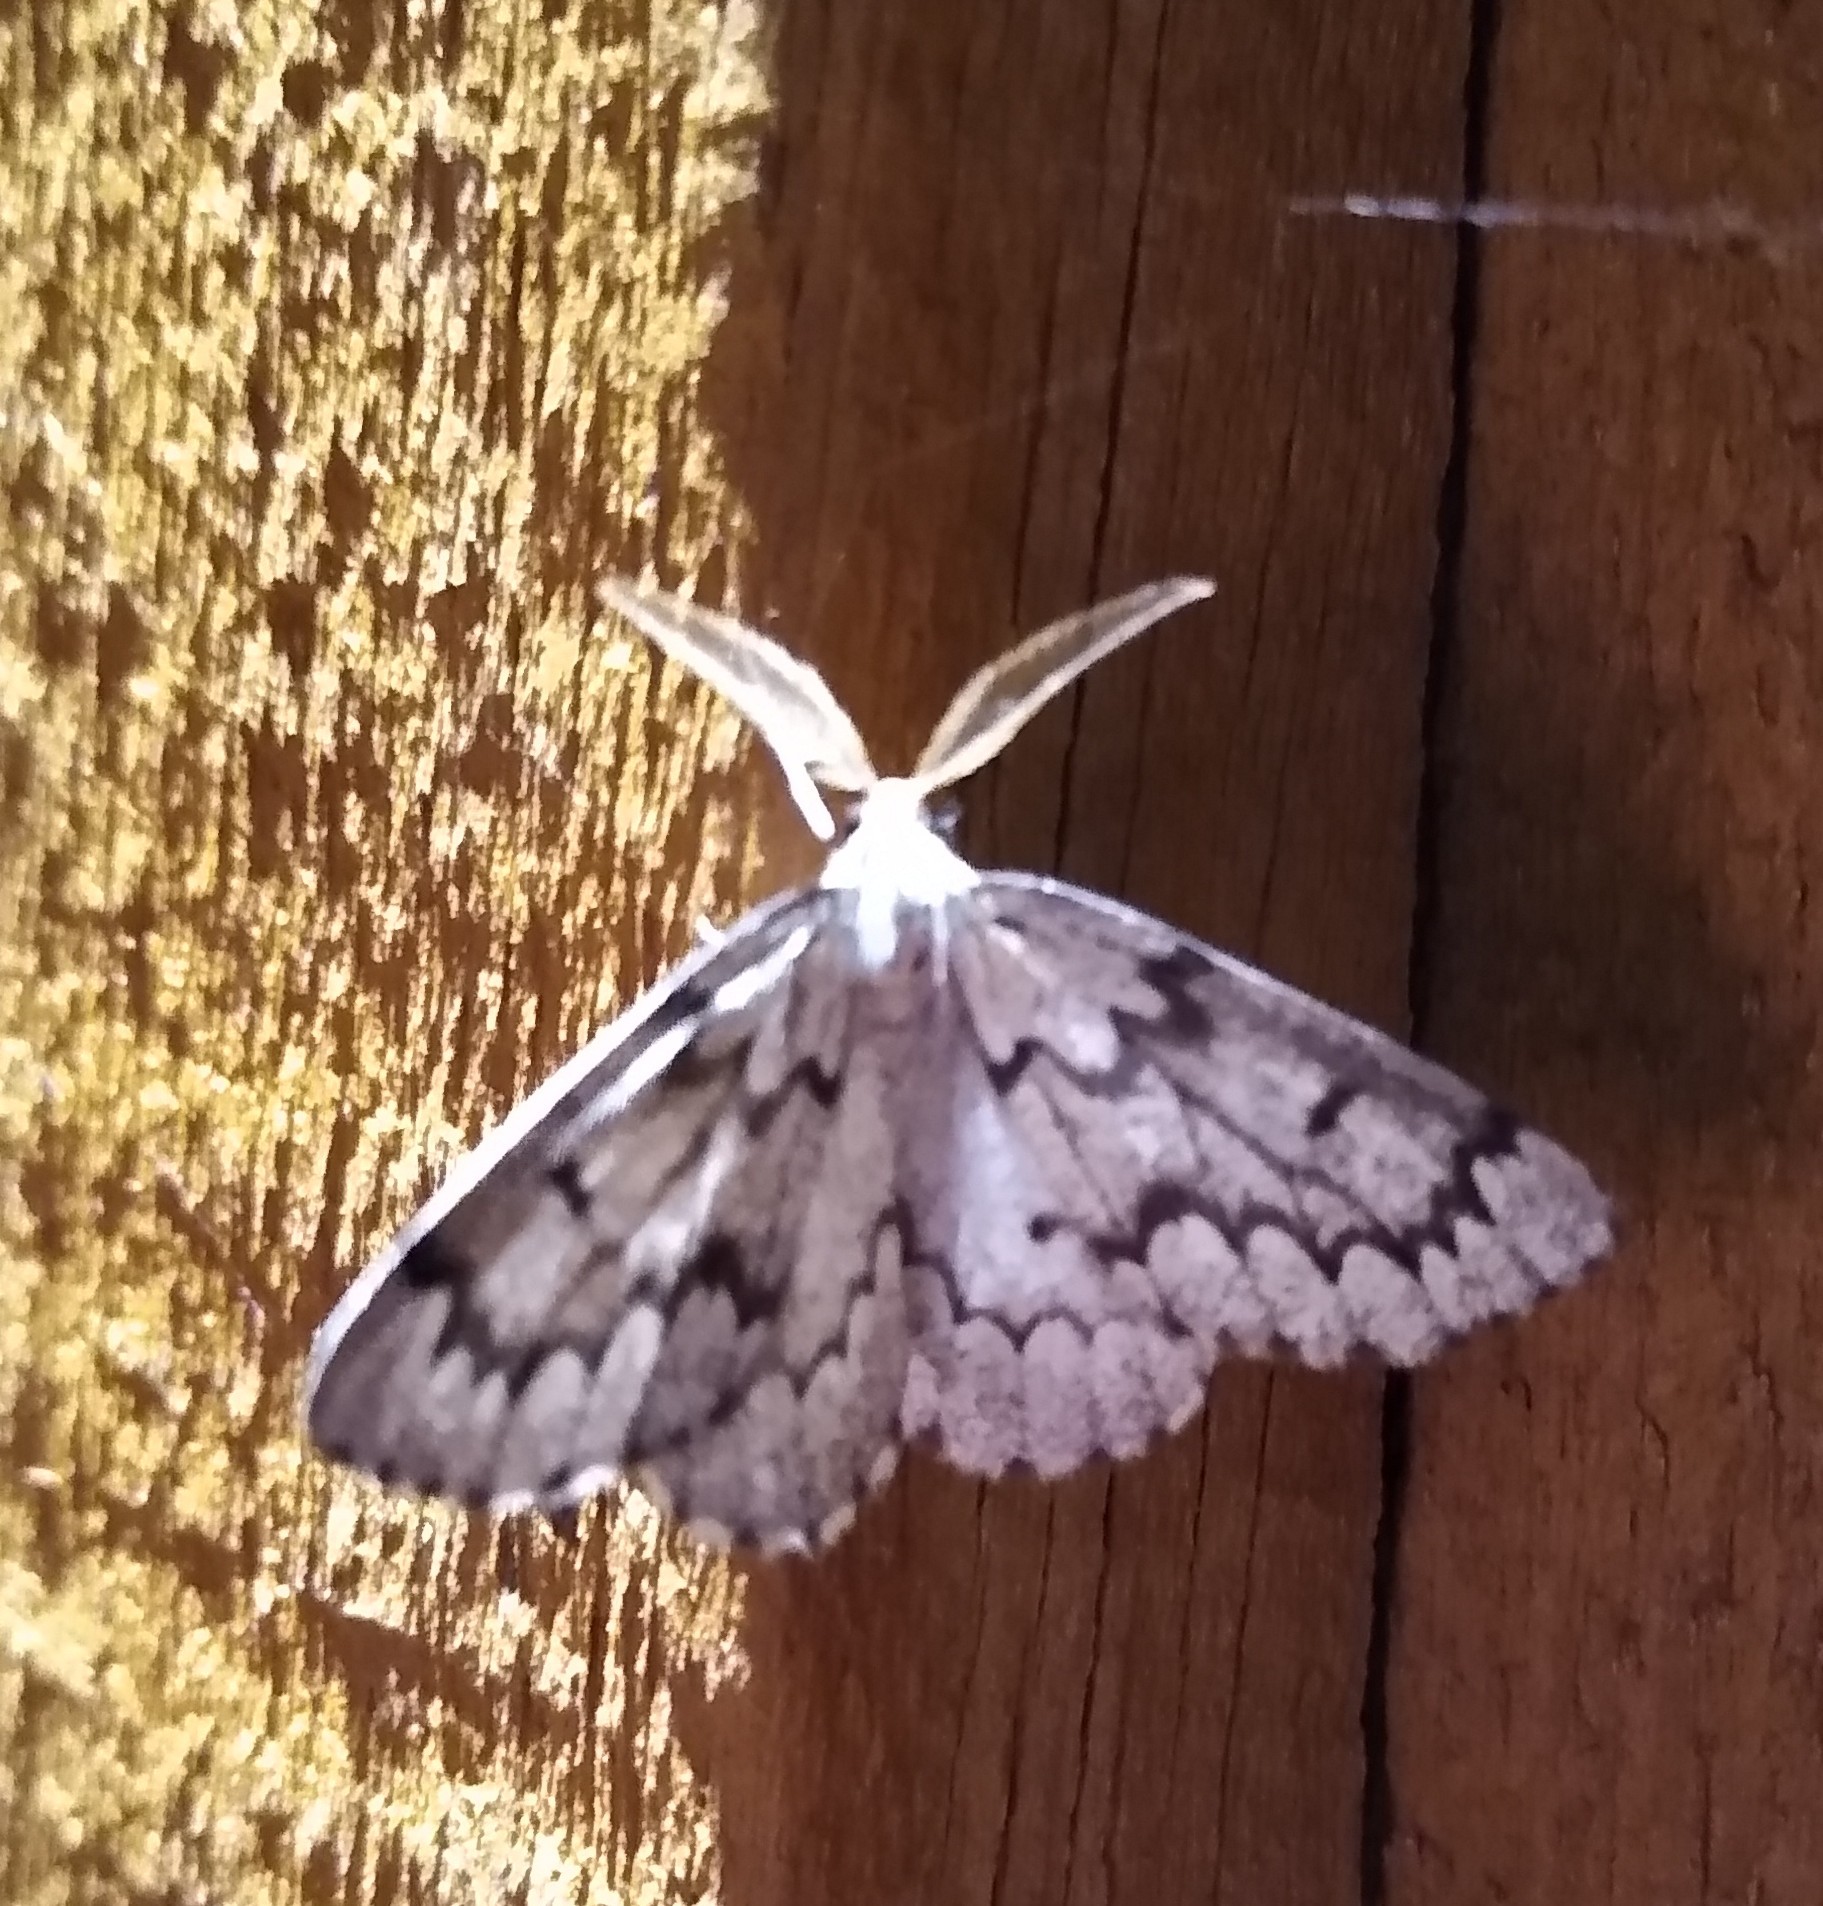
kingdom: Animalia
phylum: Arthropoda
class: Insecta
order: Lepidoptera
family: Geometridae
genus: Nepytia
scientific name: Nepytia canosaria
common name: False hemlock looper
